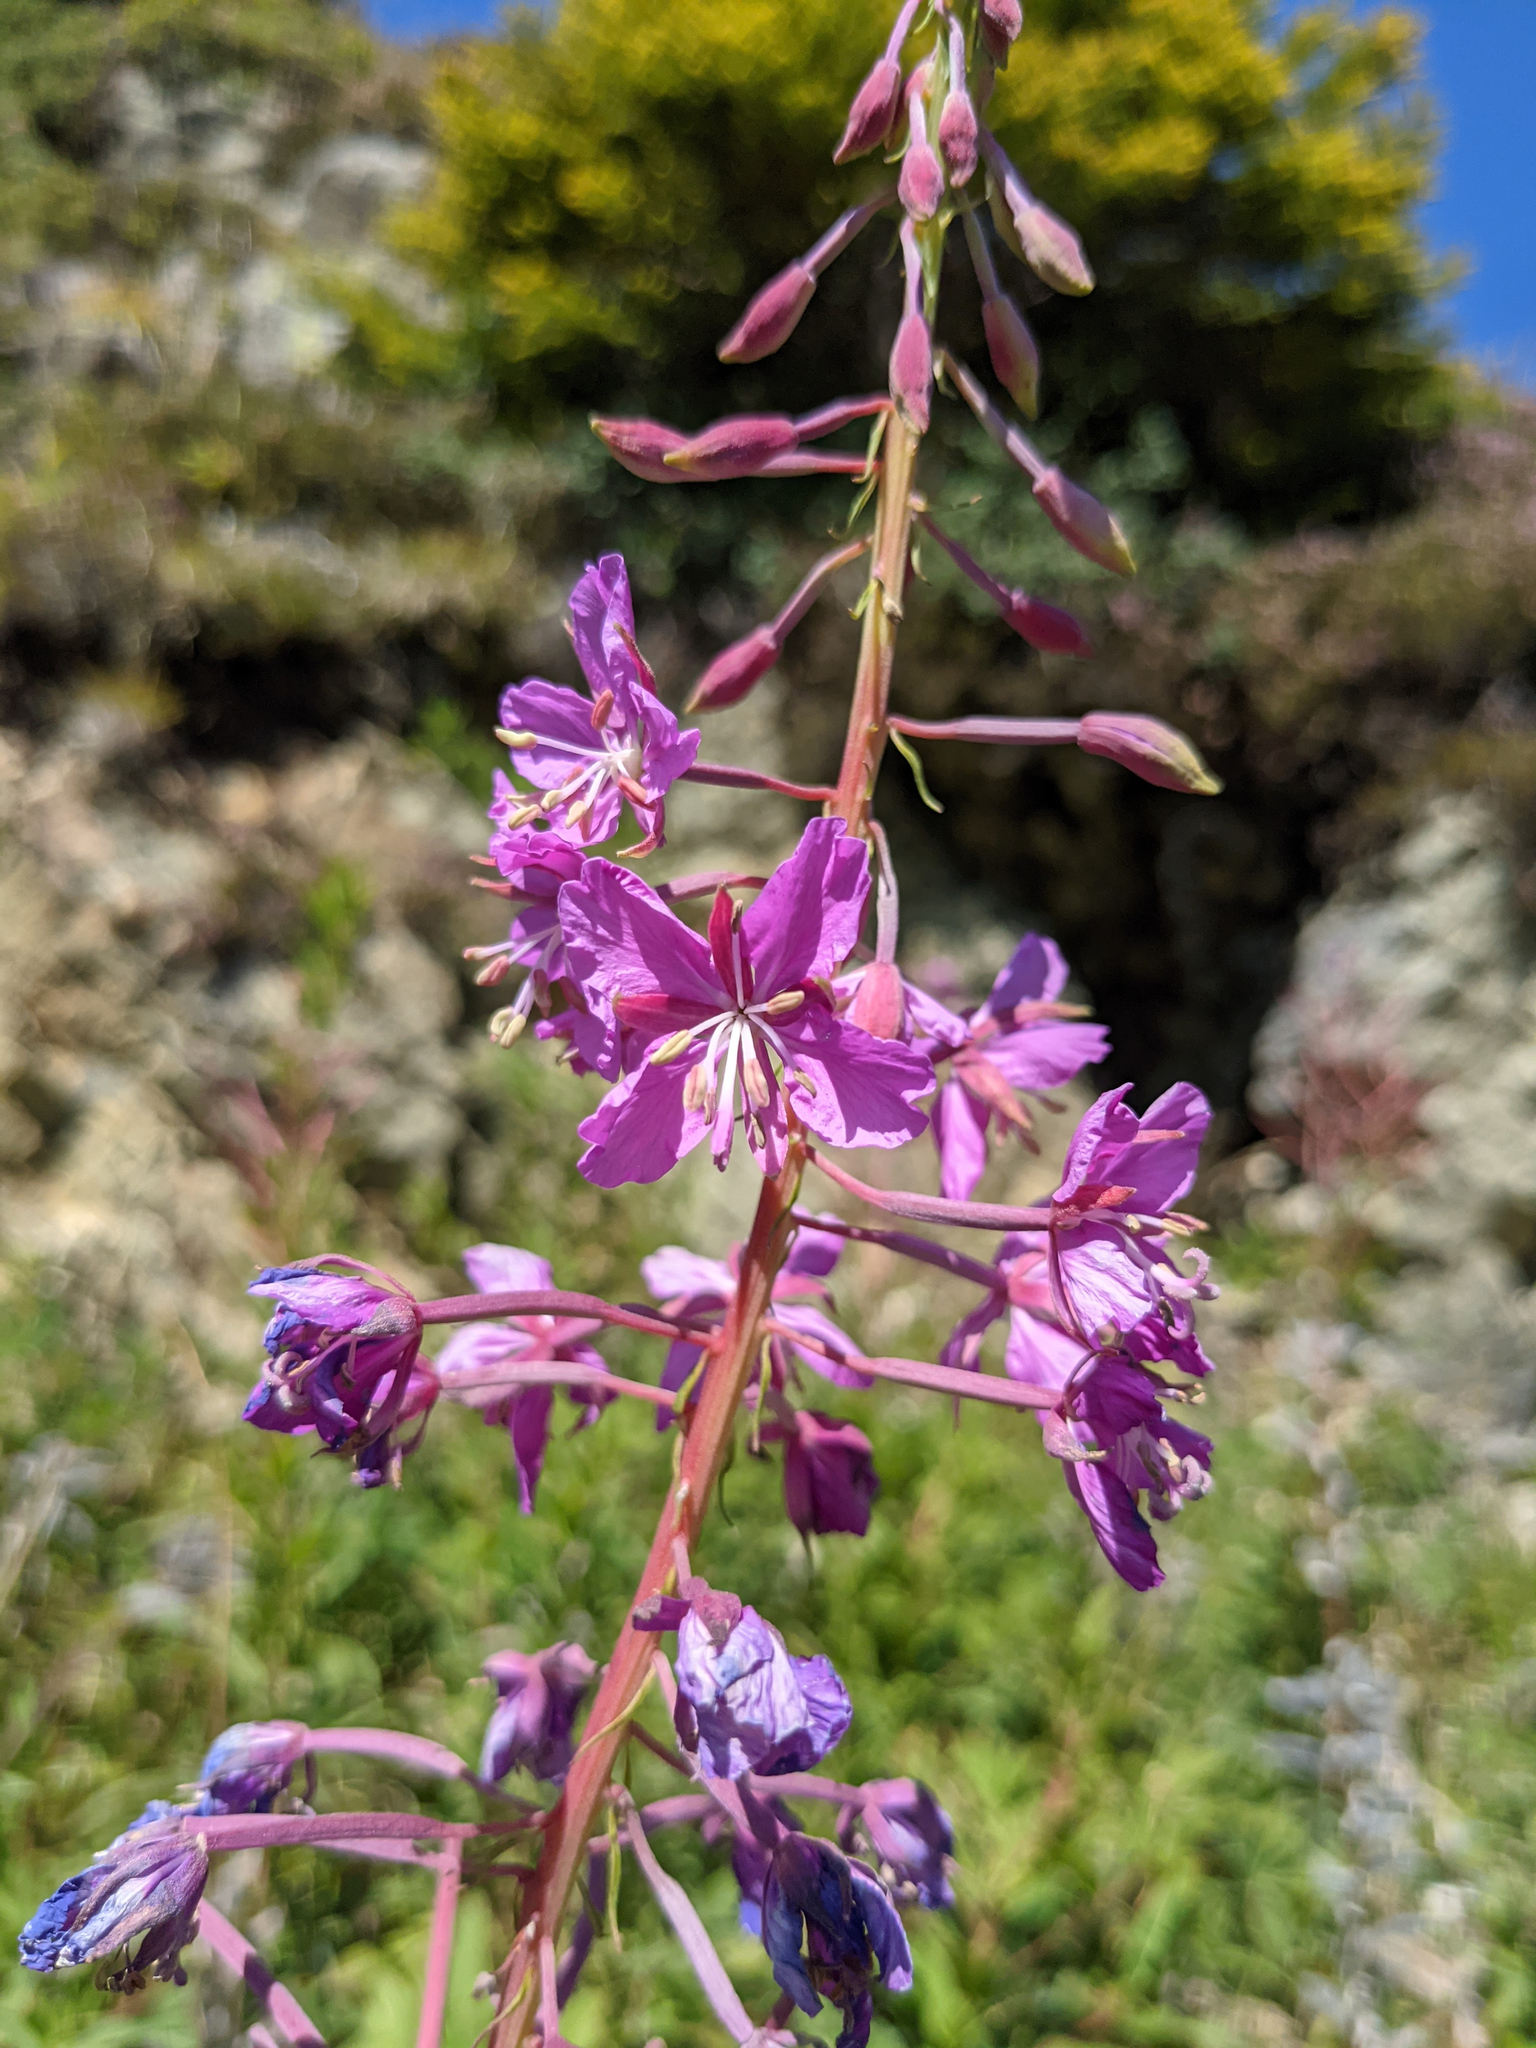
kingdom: Plantae
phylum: Tracheophyta
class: Magnoliopsida
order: Myrtales
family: Onagraceae
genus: Chamaenerion
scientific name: Chamaenerion angustifolium
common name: Fireweed
